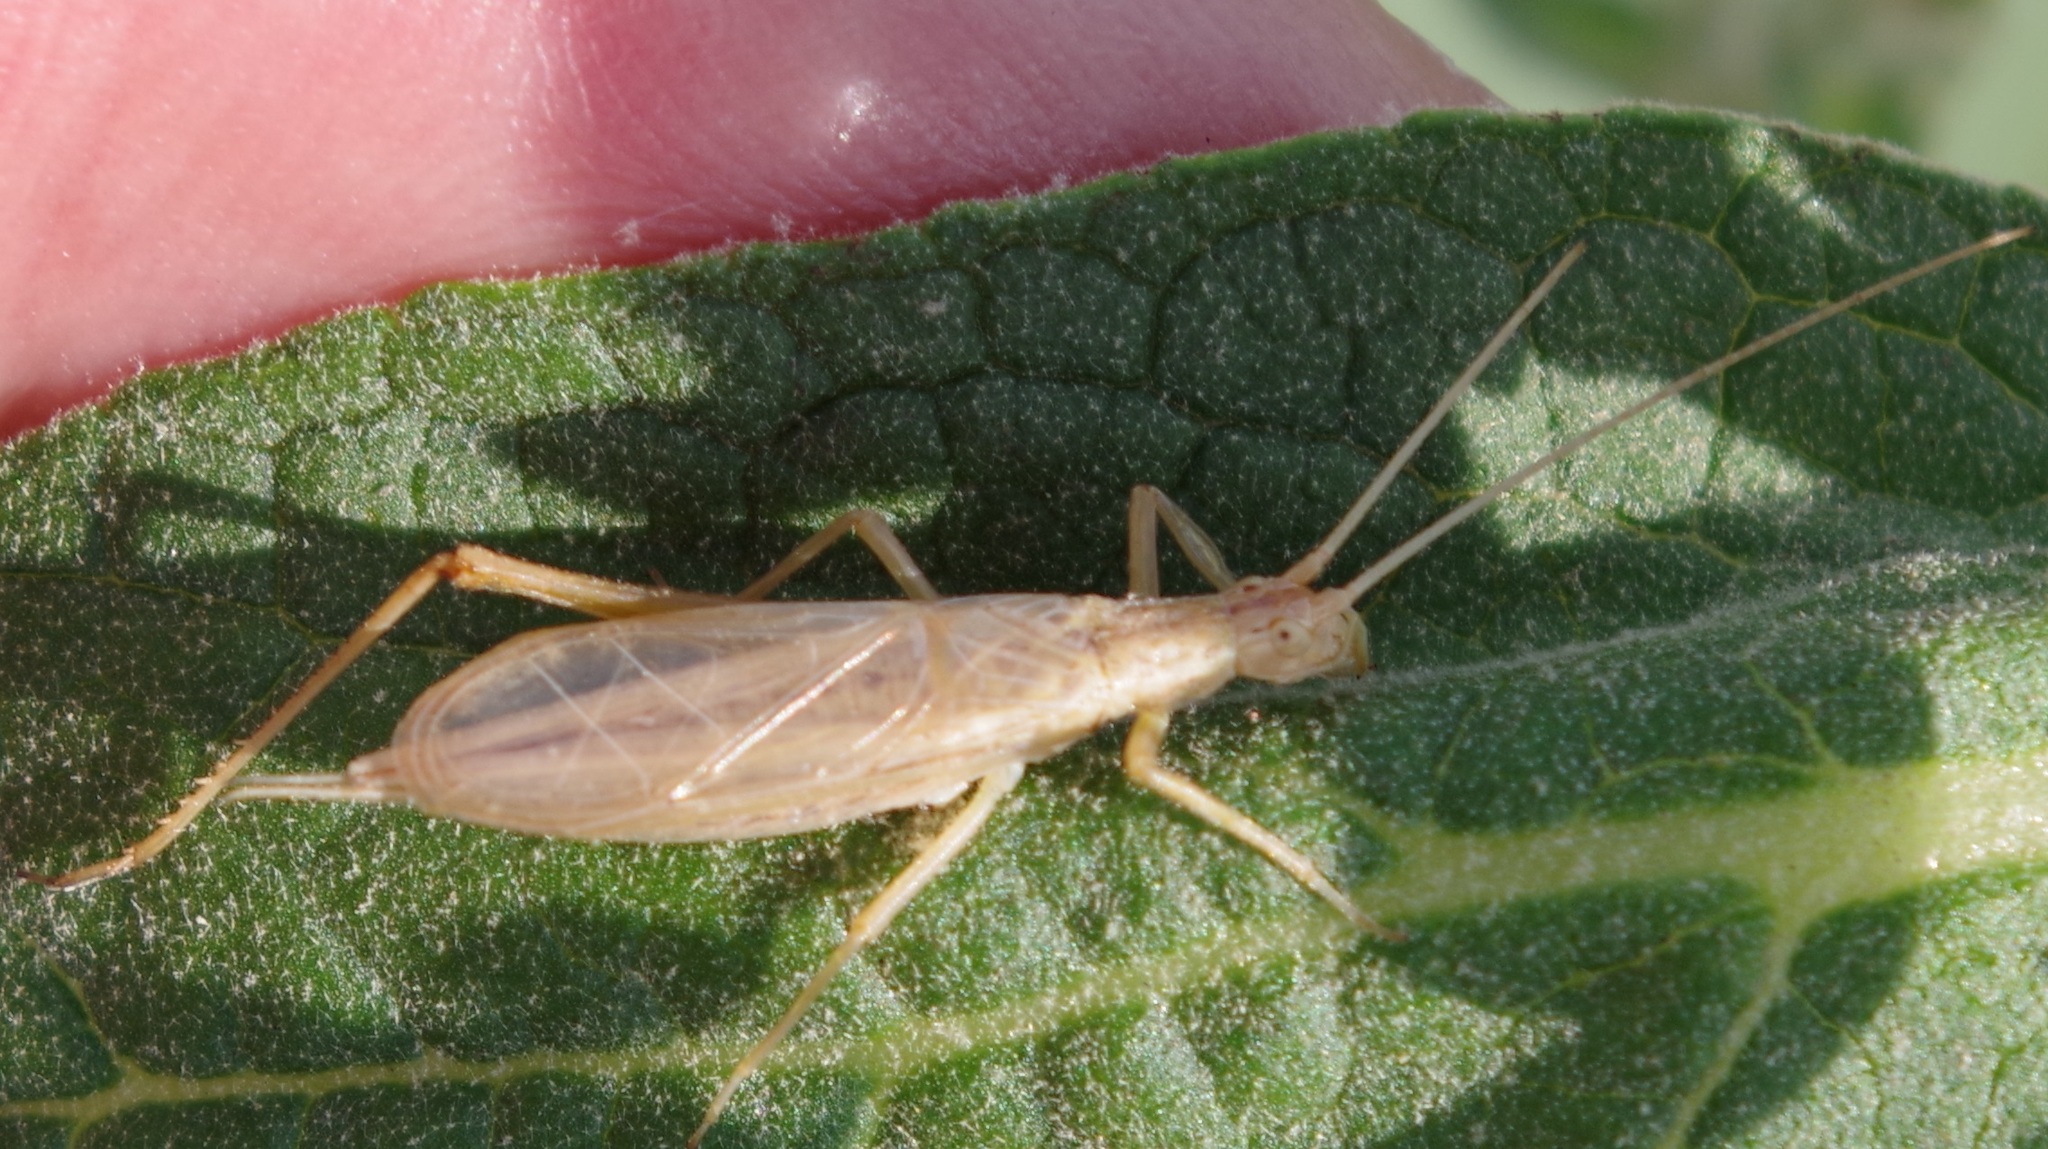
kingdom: Animalia
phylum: Arthropoda
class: Insecta
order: Orthoptera
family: Gryllidae
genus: Oecanthus
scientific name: Oecanthus pellucens
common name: Tree-cricket
